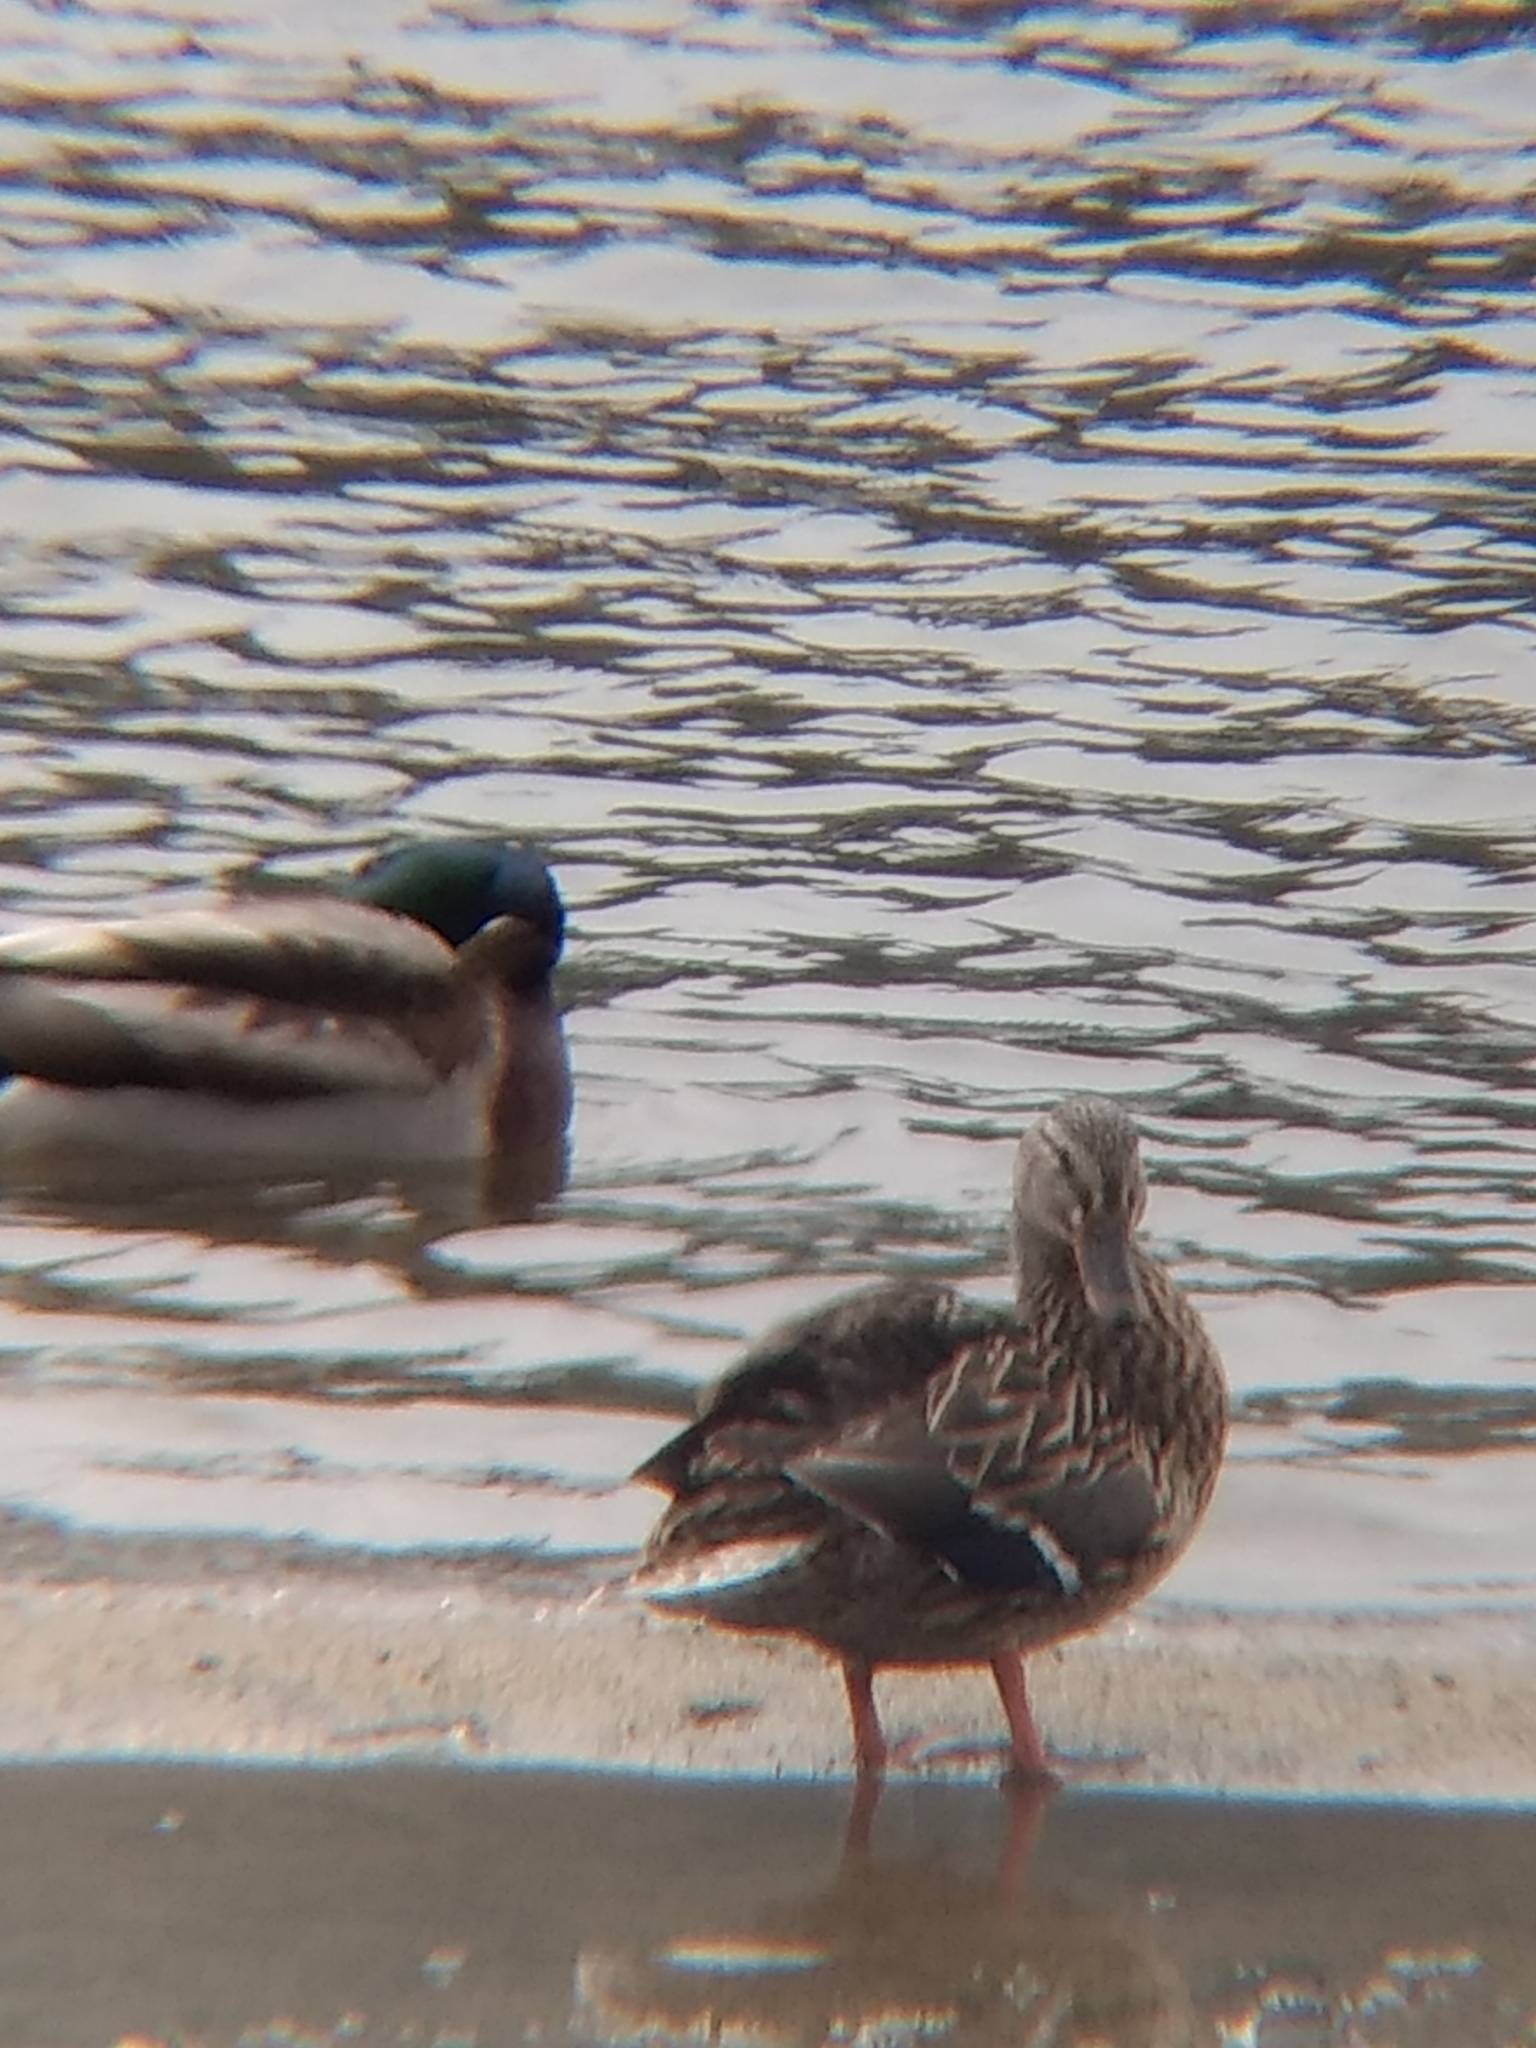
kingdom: Animalia
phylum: Chordata
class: Aves
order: Anseriformes
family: Anatidae
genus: Anas
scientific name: Anas platyrhynchos
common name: Mallard
